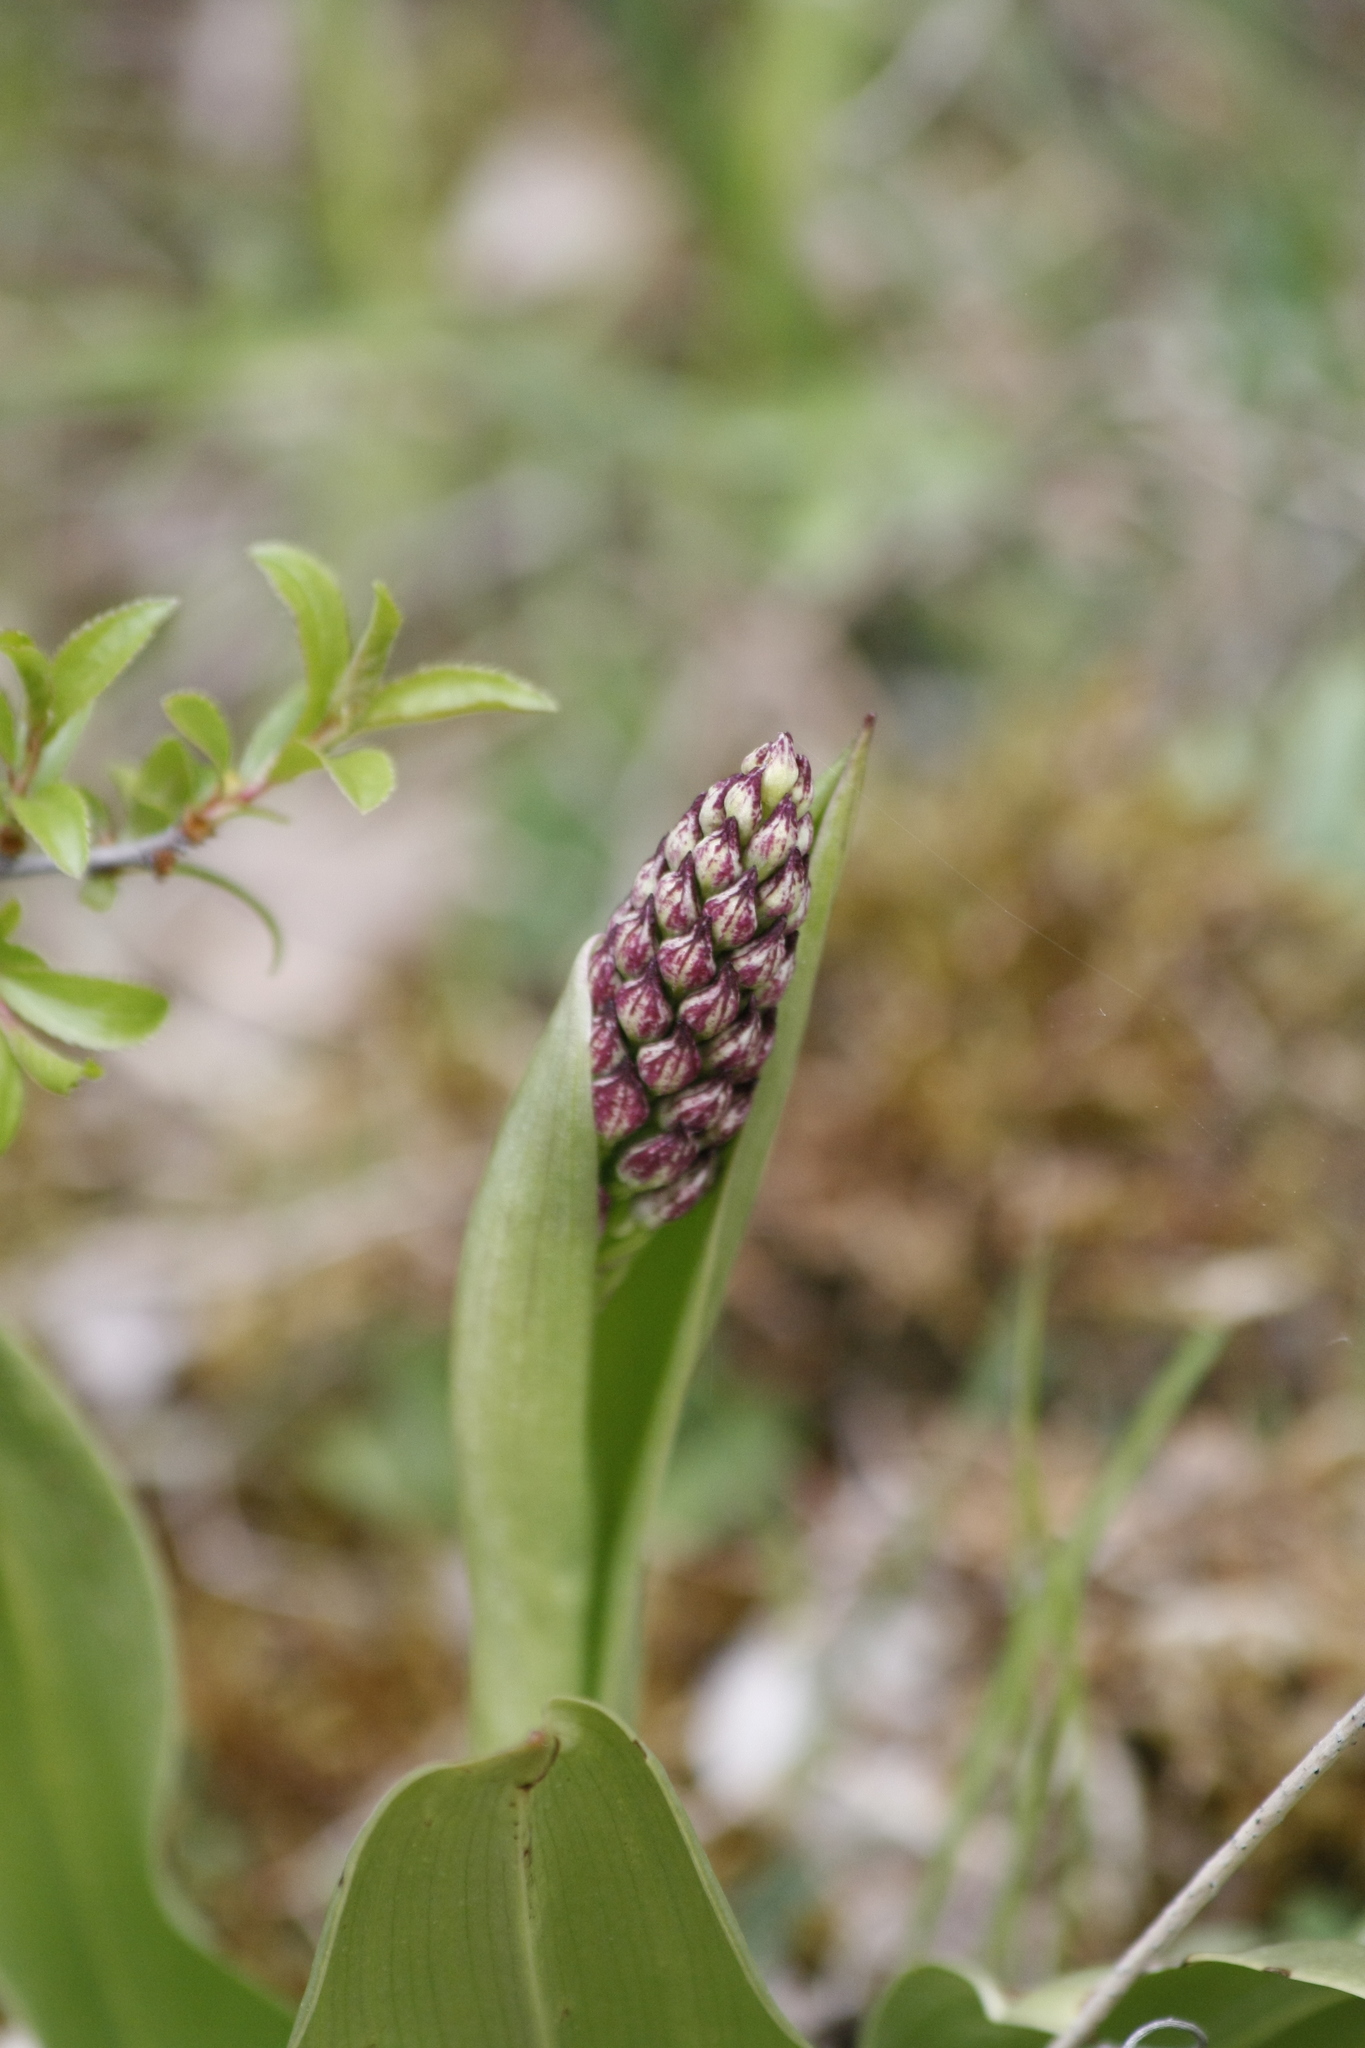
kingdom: Plantae
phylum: Tracheophyta
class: Liliopsida
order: Asparagales
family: Orchidaceae
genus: Orchis
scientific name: Orchis purpurea
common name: Lady orchid
